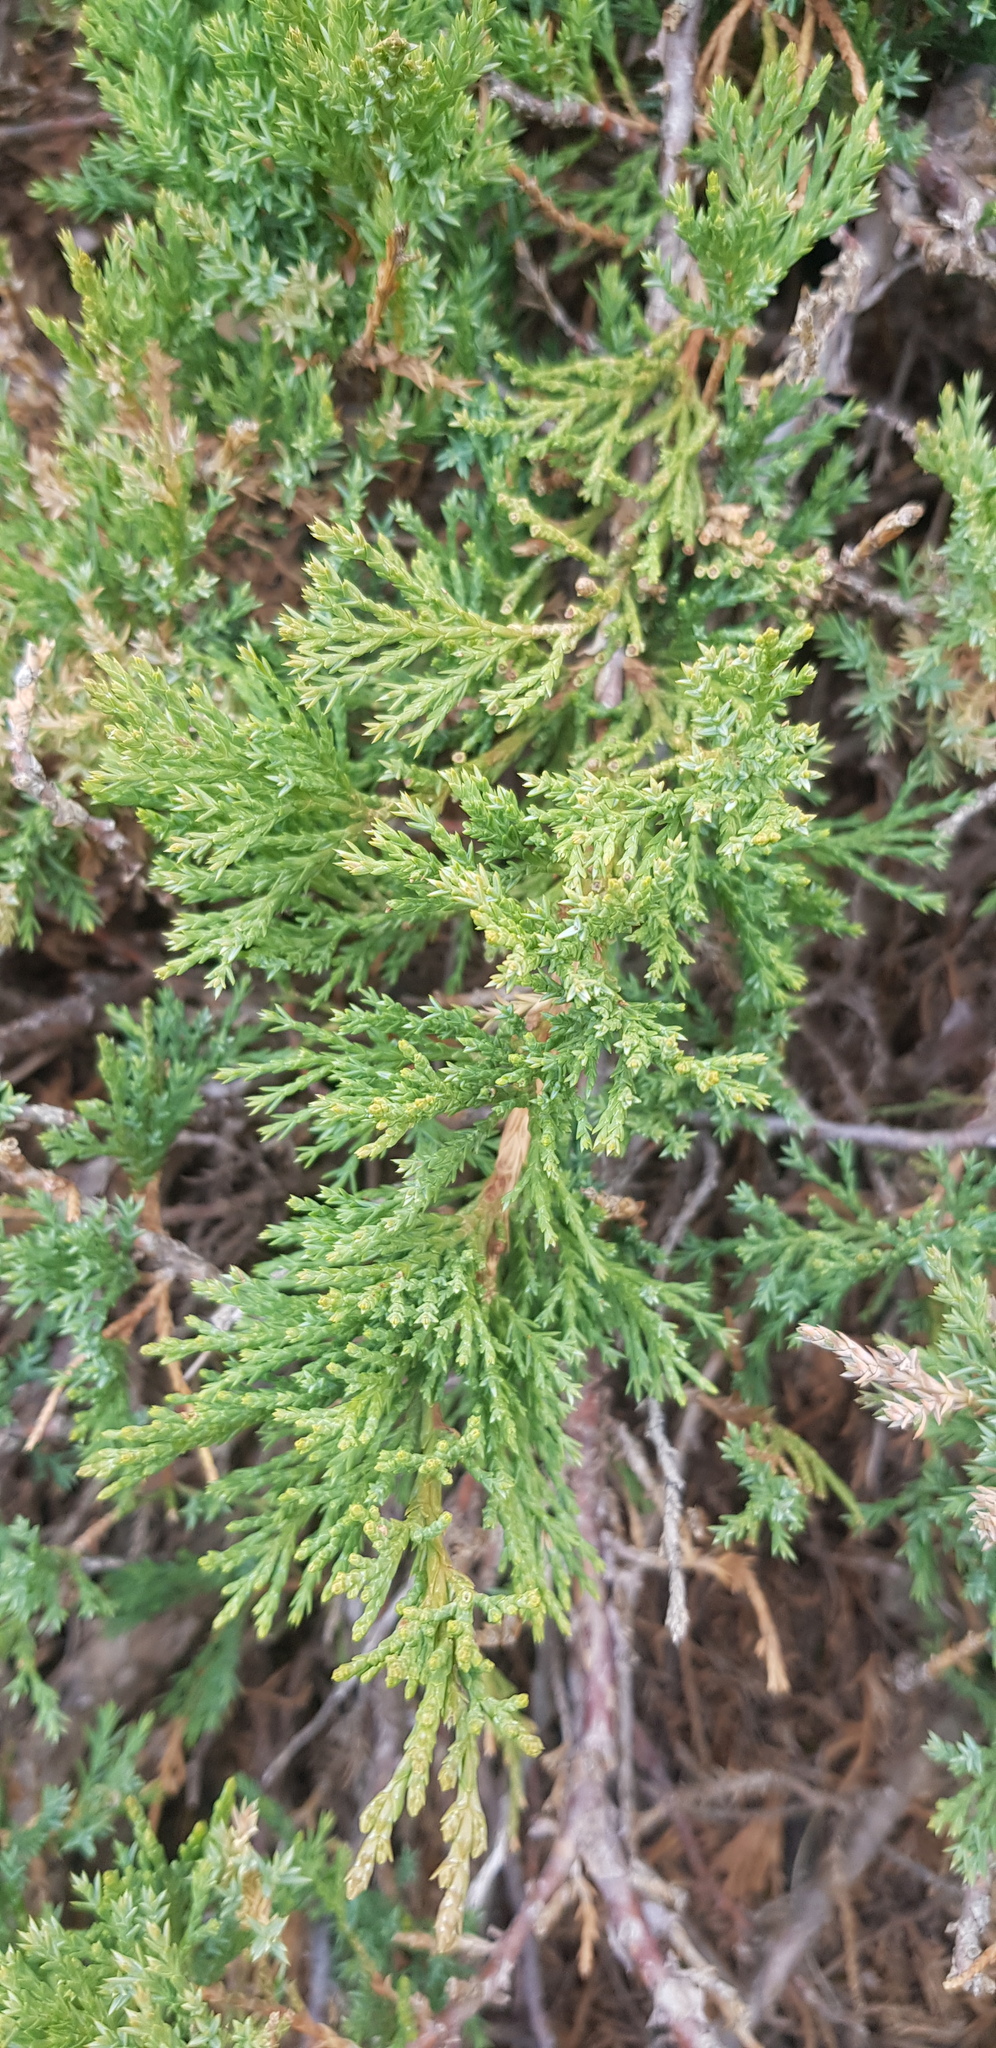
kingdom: Plantae
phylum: Tracheophyta
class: Pinopsida
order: Pinales
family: Cupressaceae
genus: Juniperus
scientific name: Juniperus sabina
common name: Savin
